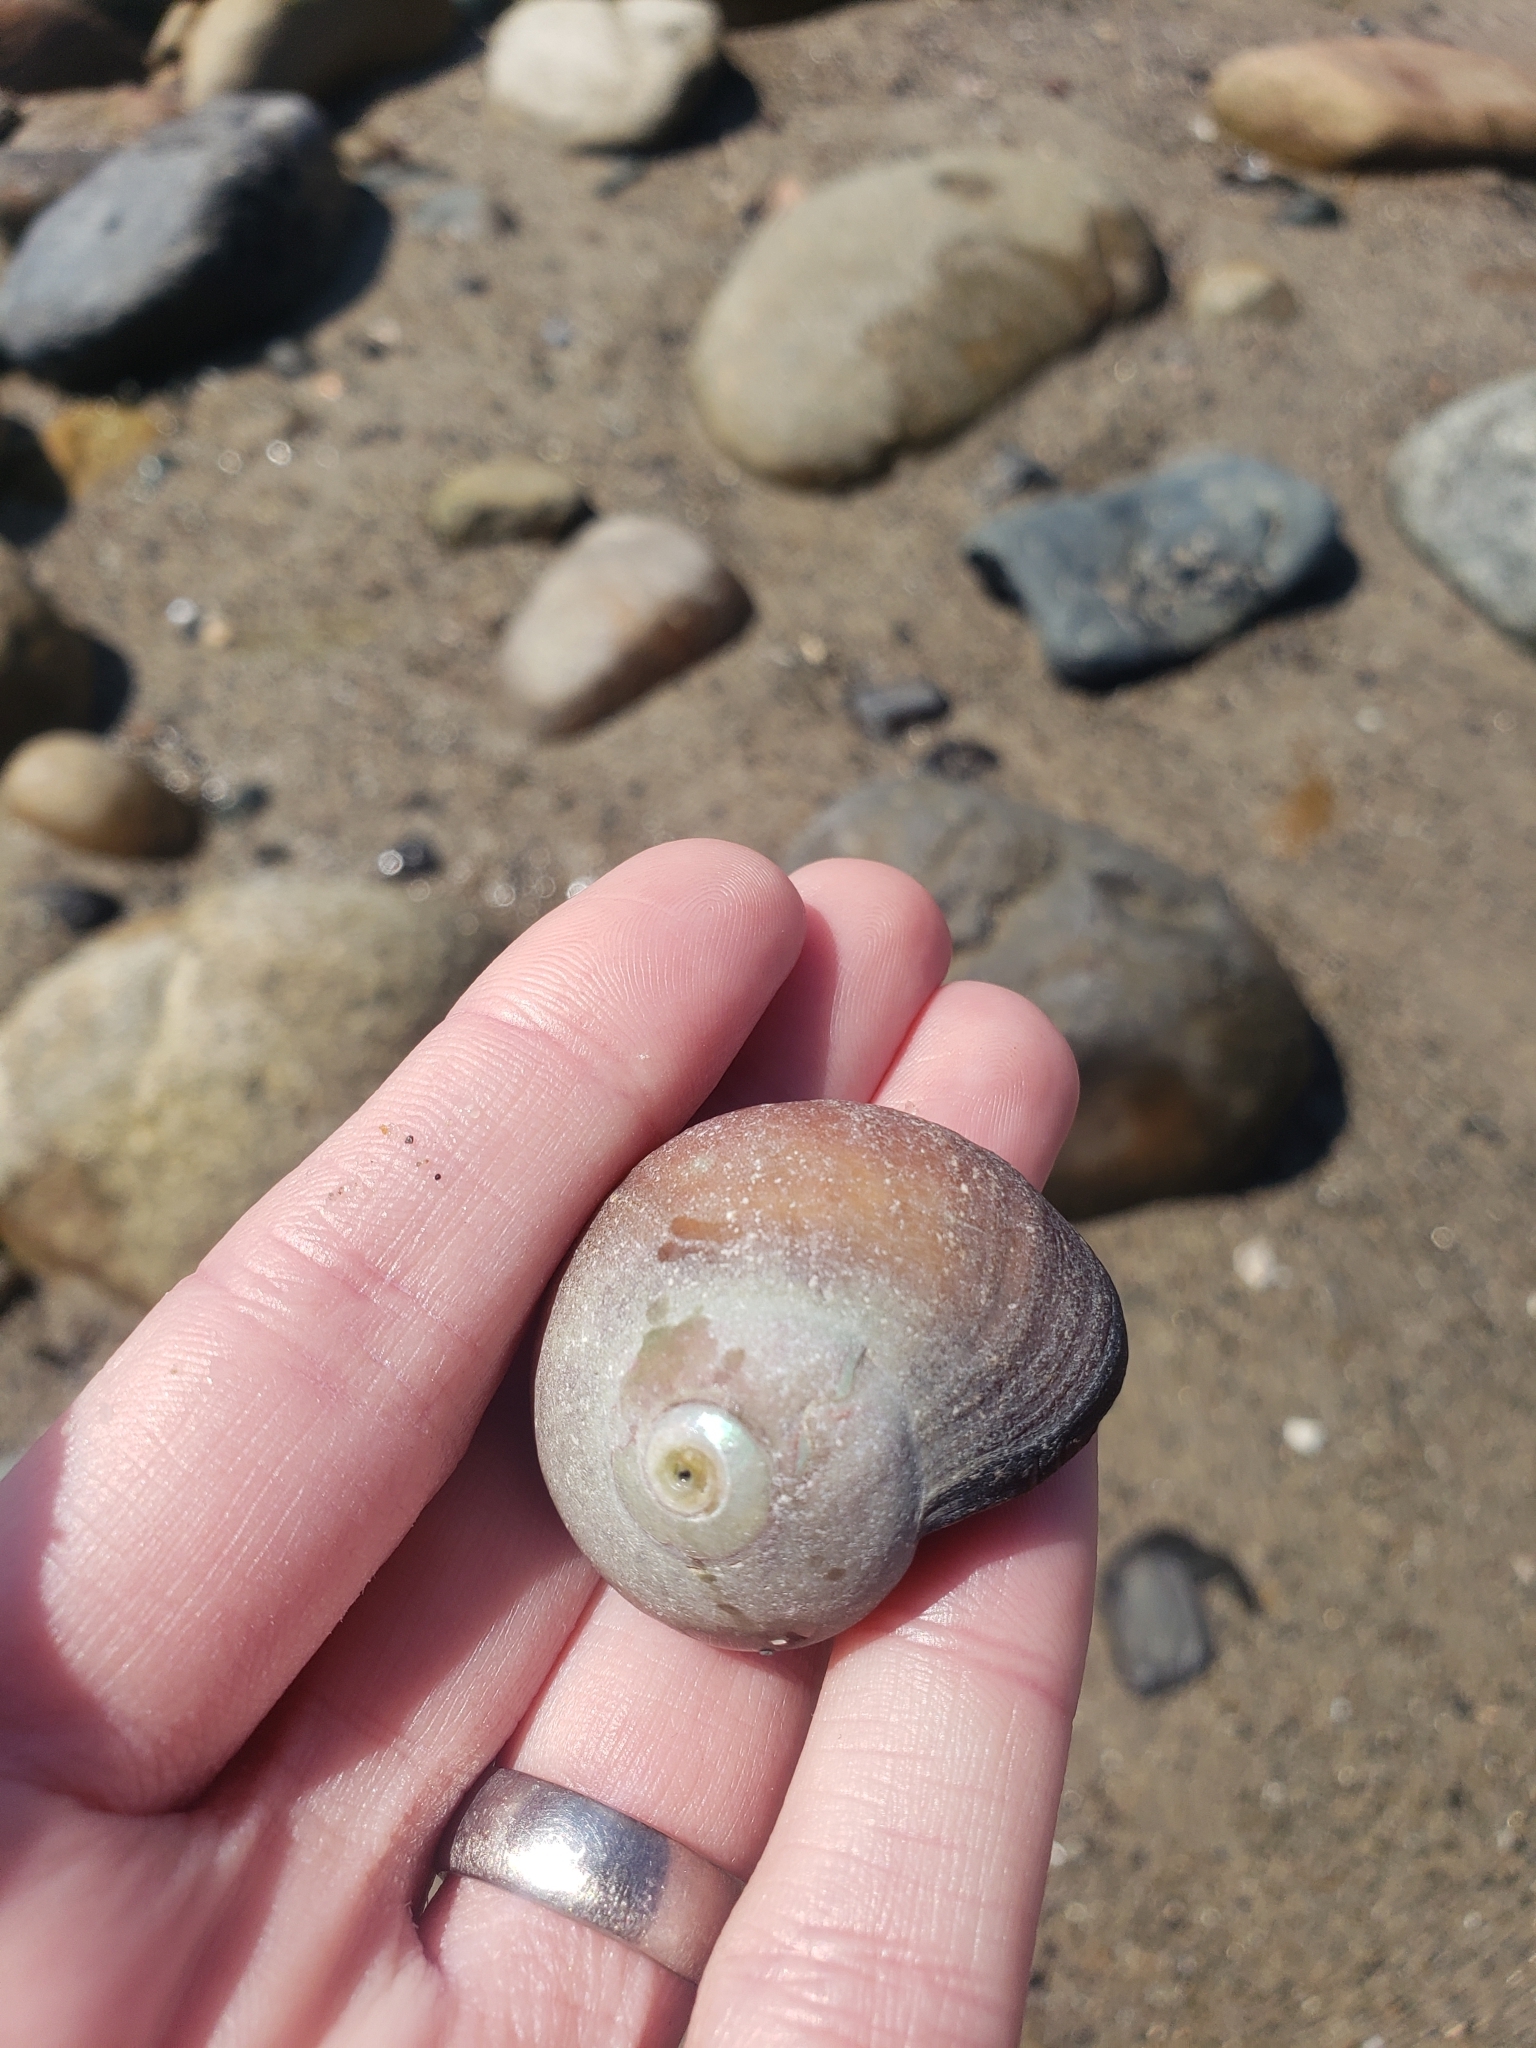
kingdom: Animalia
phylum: Mollusca
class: Gastropoda
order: Trochida
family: Tegulidae
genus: Norrisia
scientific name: Norrisia norrisii
